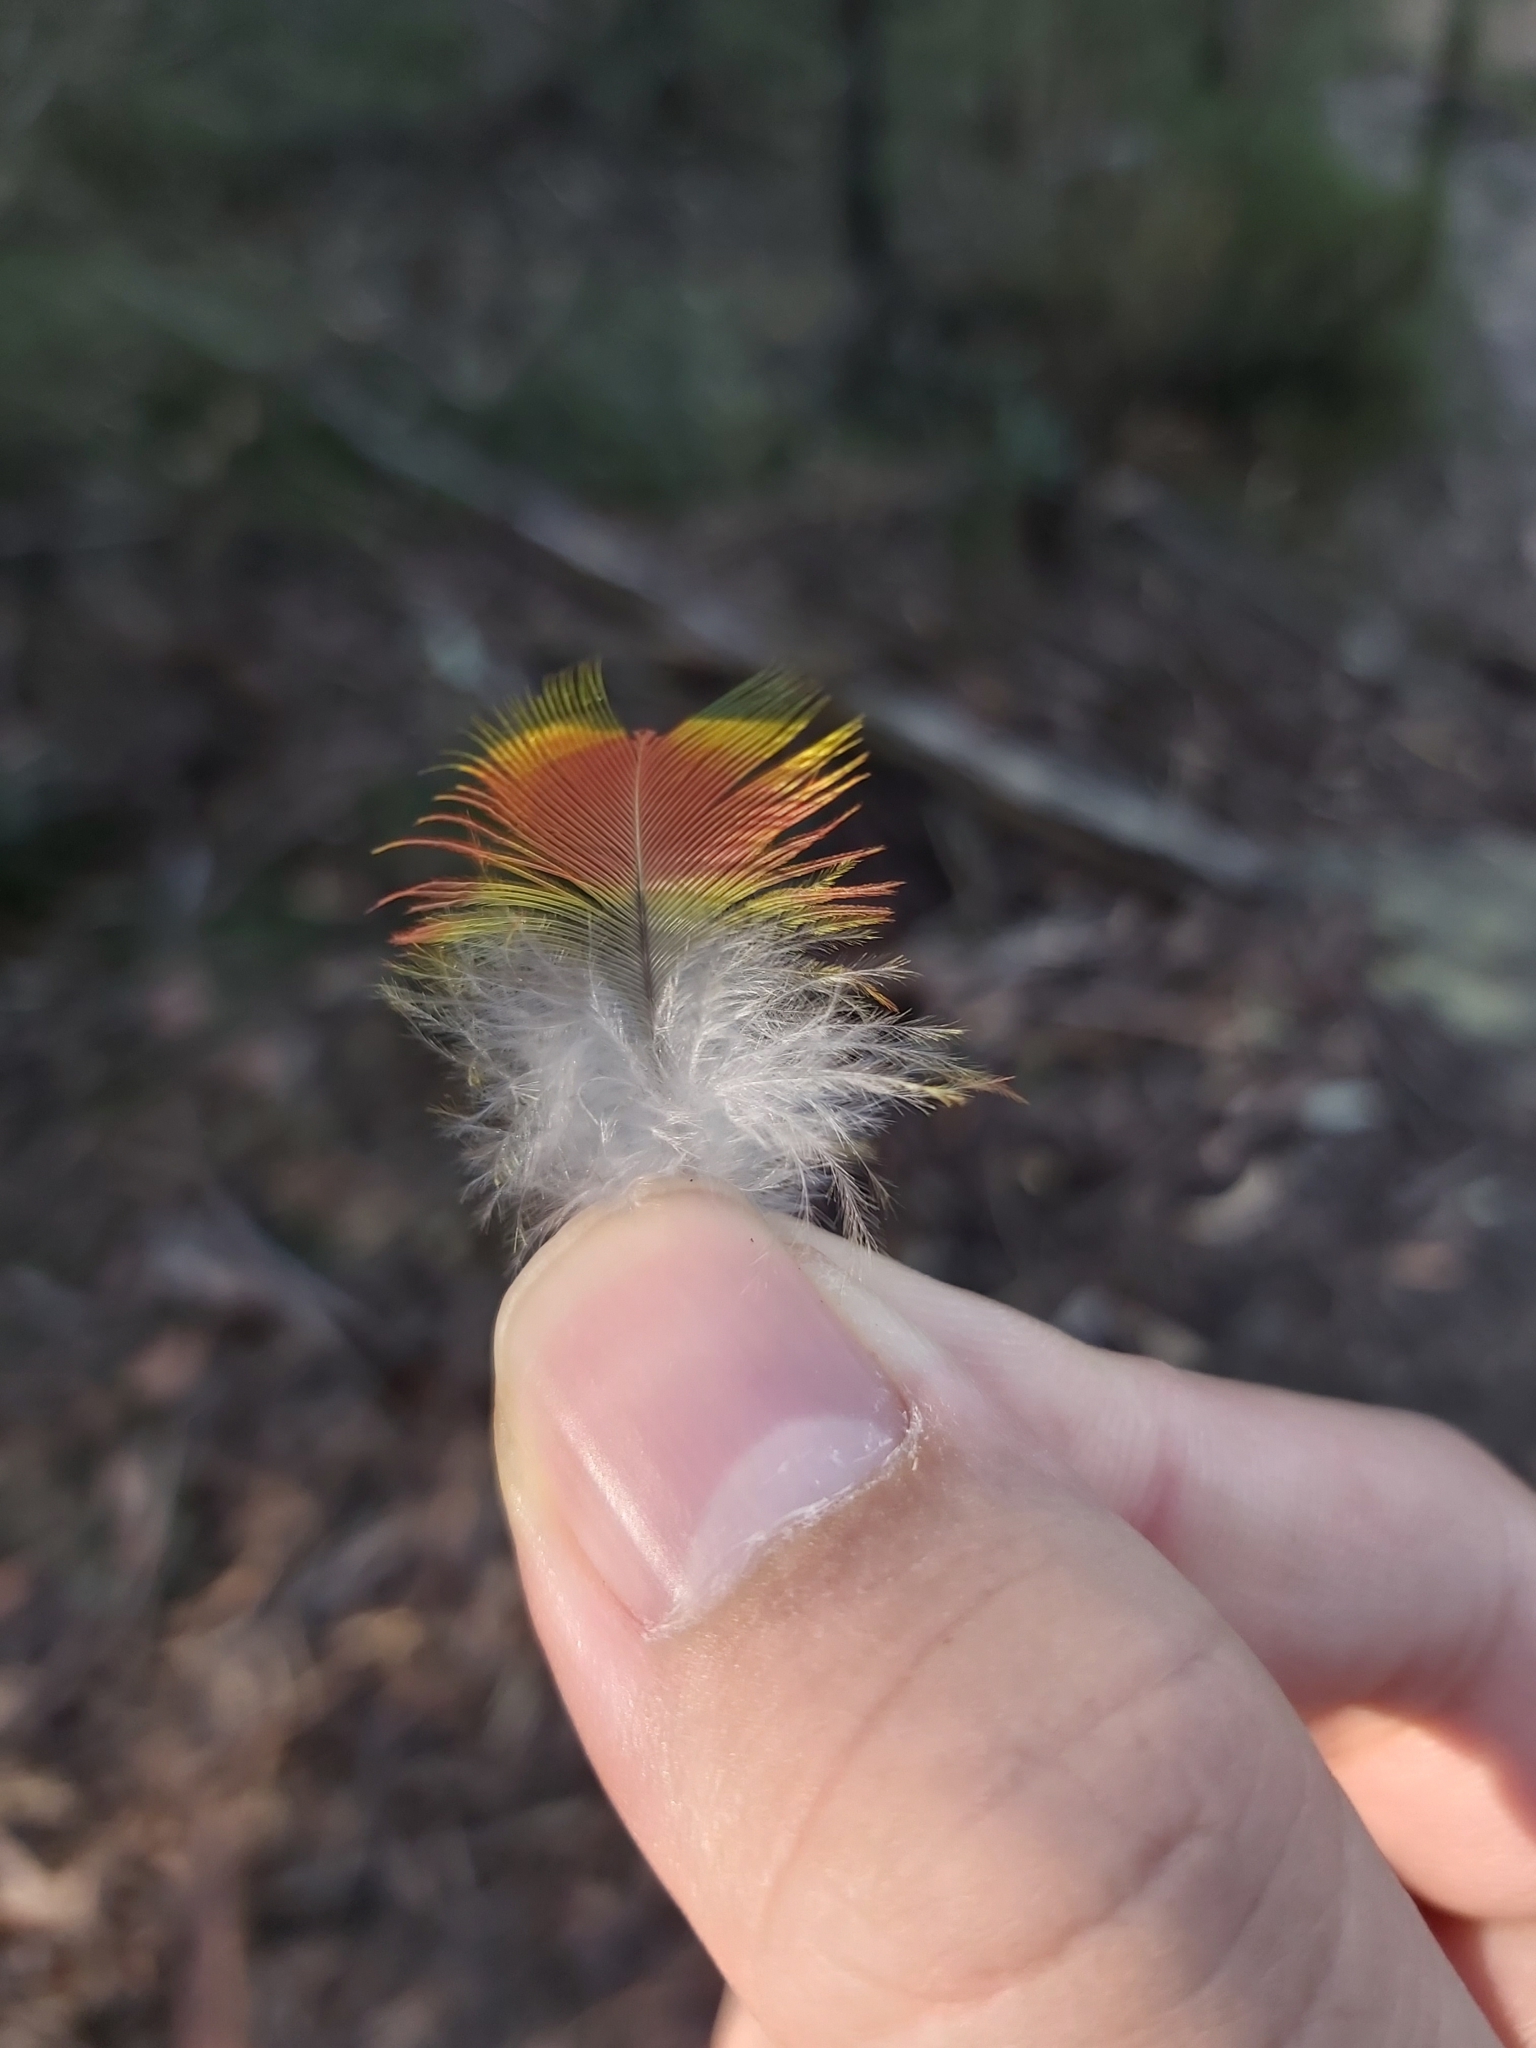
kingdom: Animalia
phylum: Chordata
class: Aves
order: Psittaciformes
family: Psittacidae
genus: Trichoglossus
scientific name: Trichoglossus haematodus
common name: Coconut lorikeet
